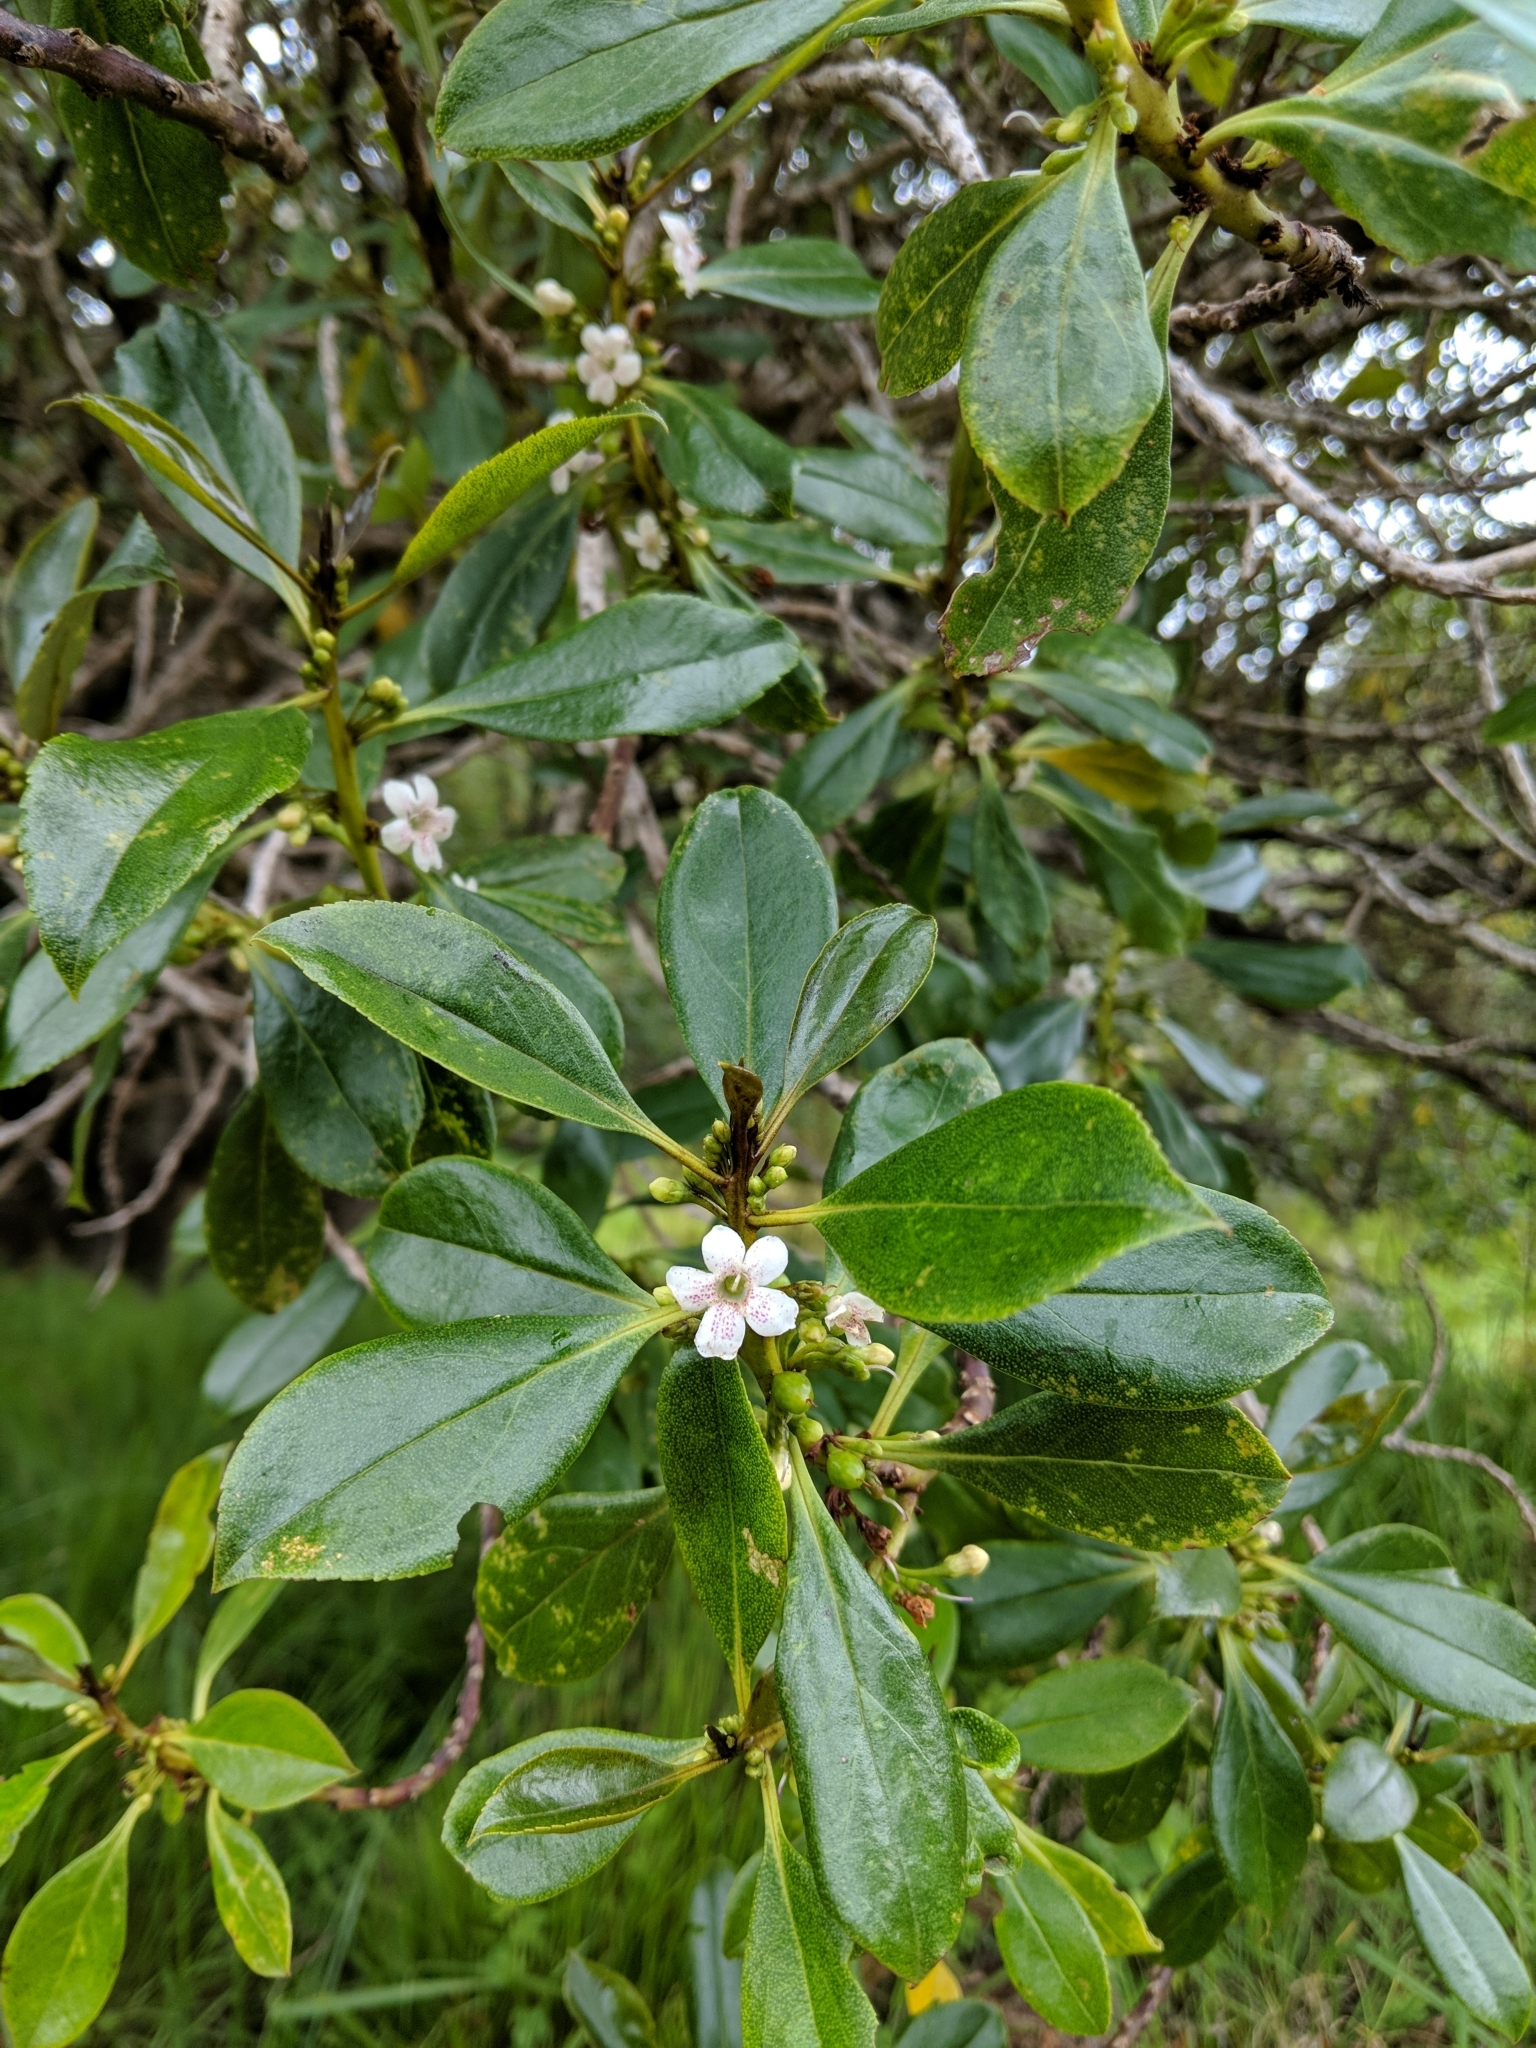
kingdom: Plantae
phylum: Tracheophyta
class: Magnoliopsida
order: Lamiales
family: Scrophulariaceae
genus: Myoporum
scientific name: Myoporum laetum
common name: Ngaio tree
